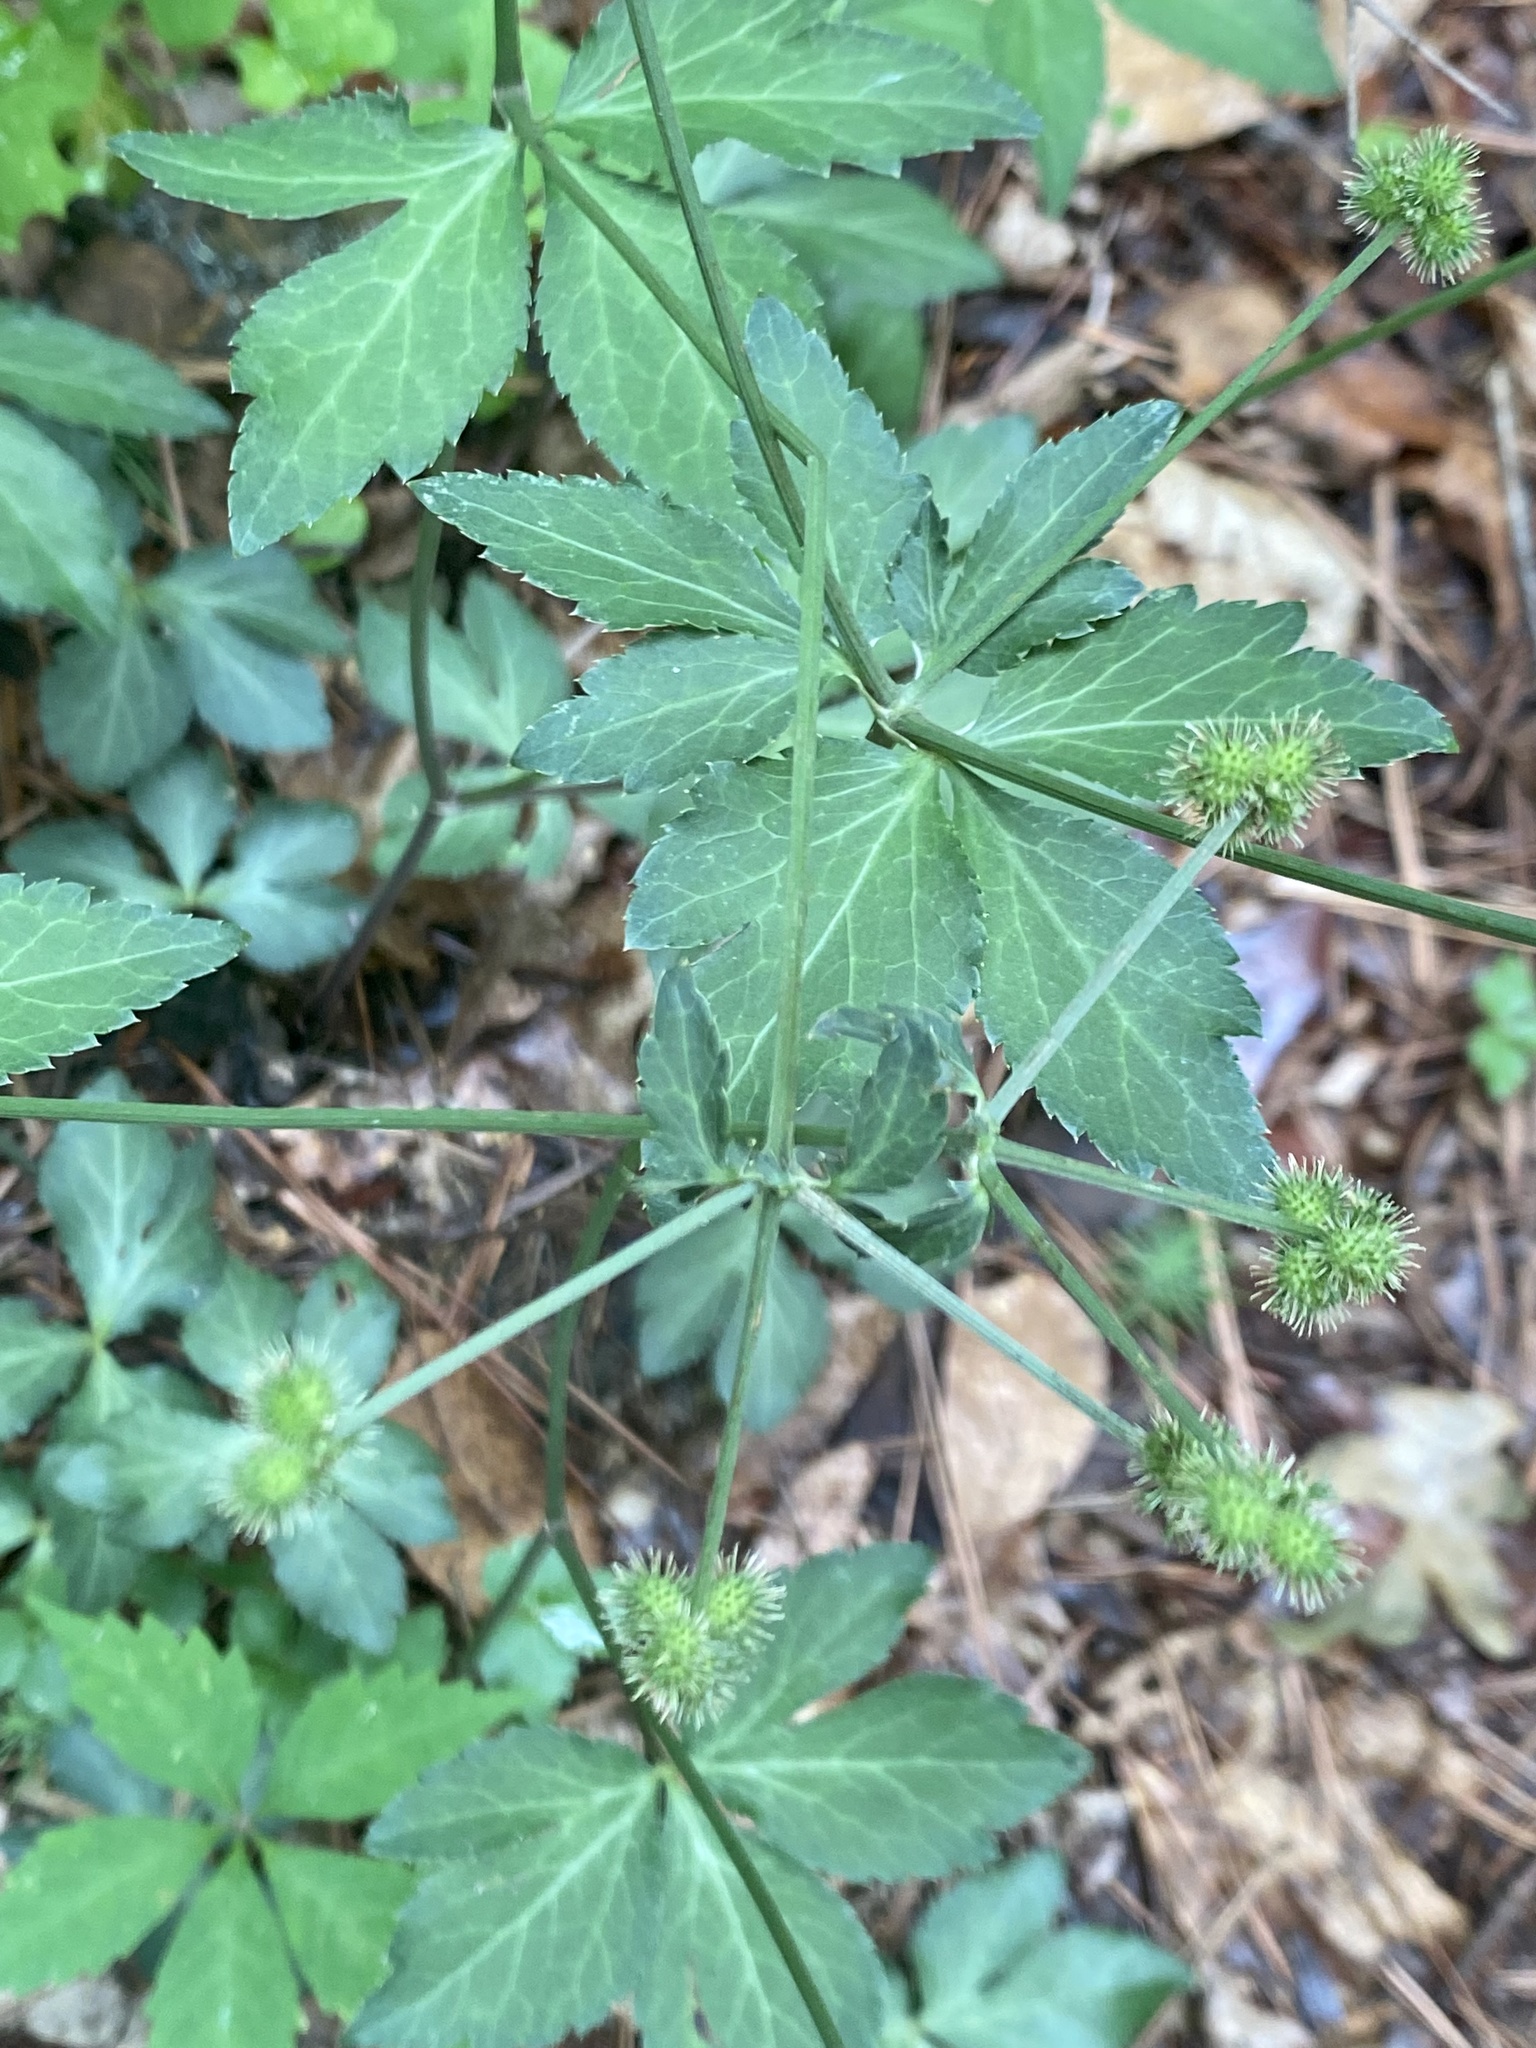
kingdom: Plantae
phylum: Tracheophyta
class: Magnoliopsida
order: Apiales
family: Apiaceae
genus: Sanicula
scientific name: Sanicula smallii
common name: Small's black snakeroot
